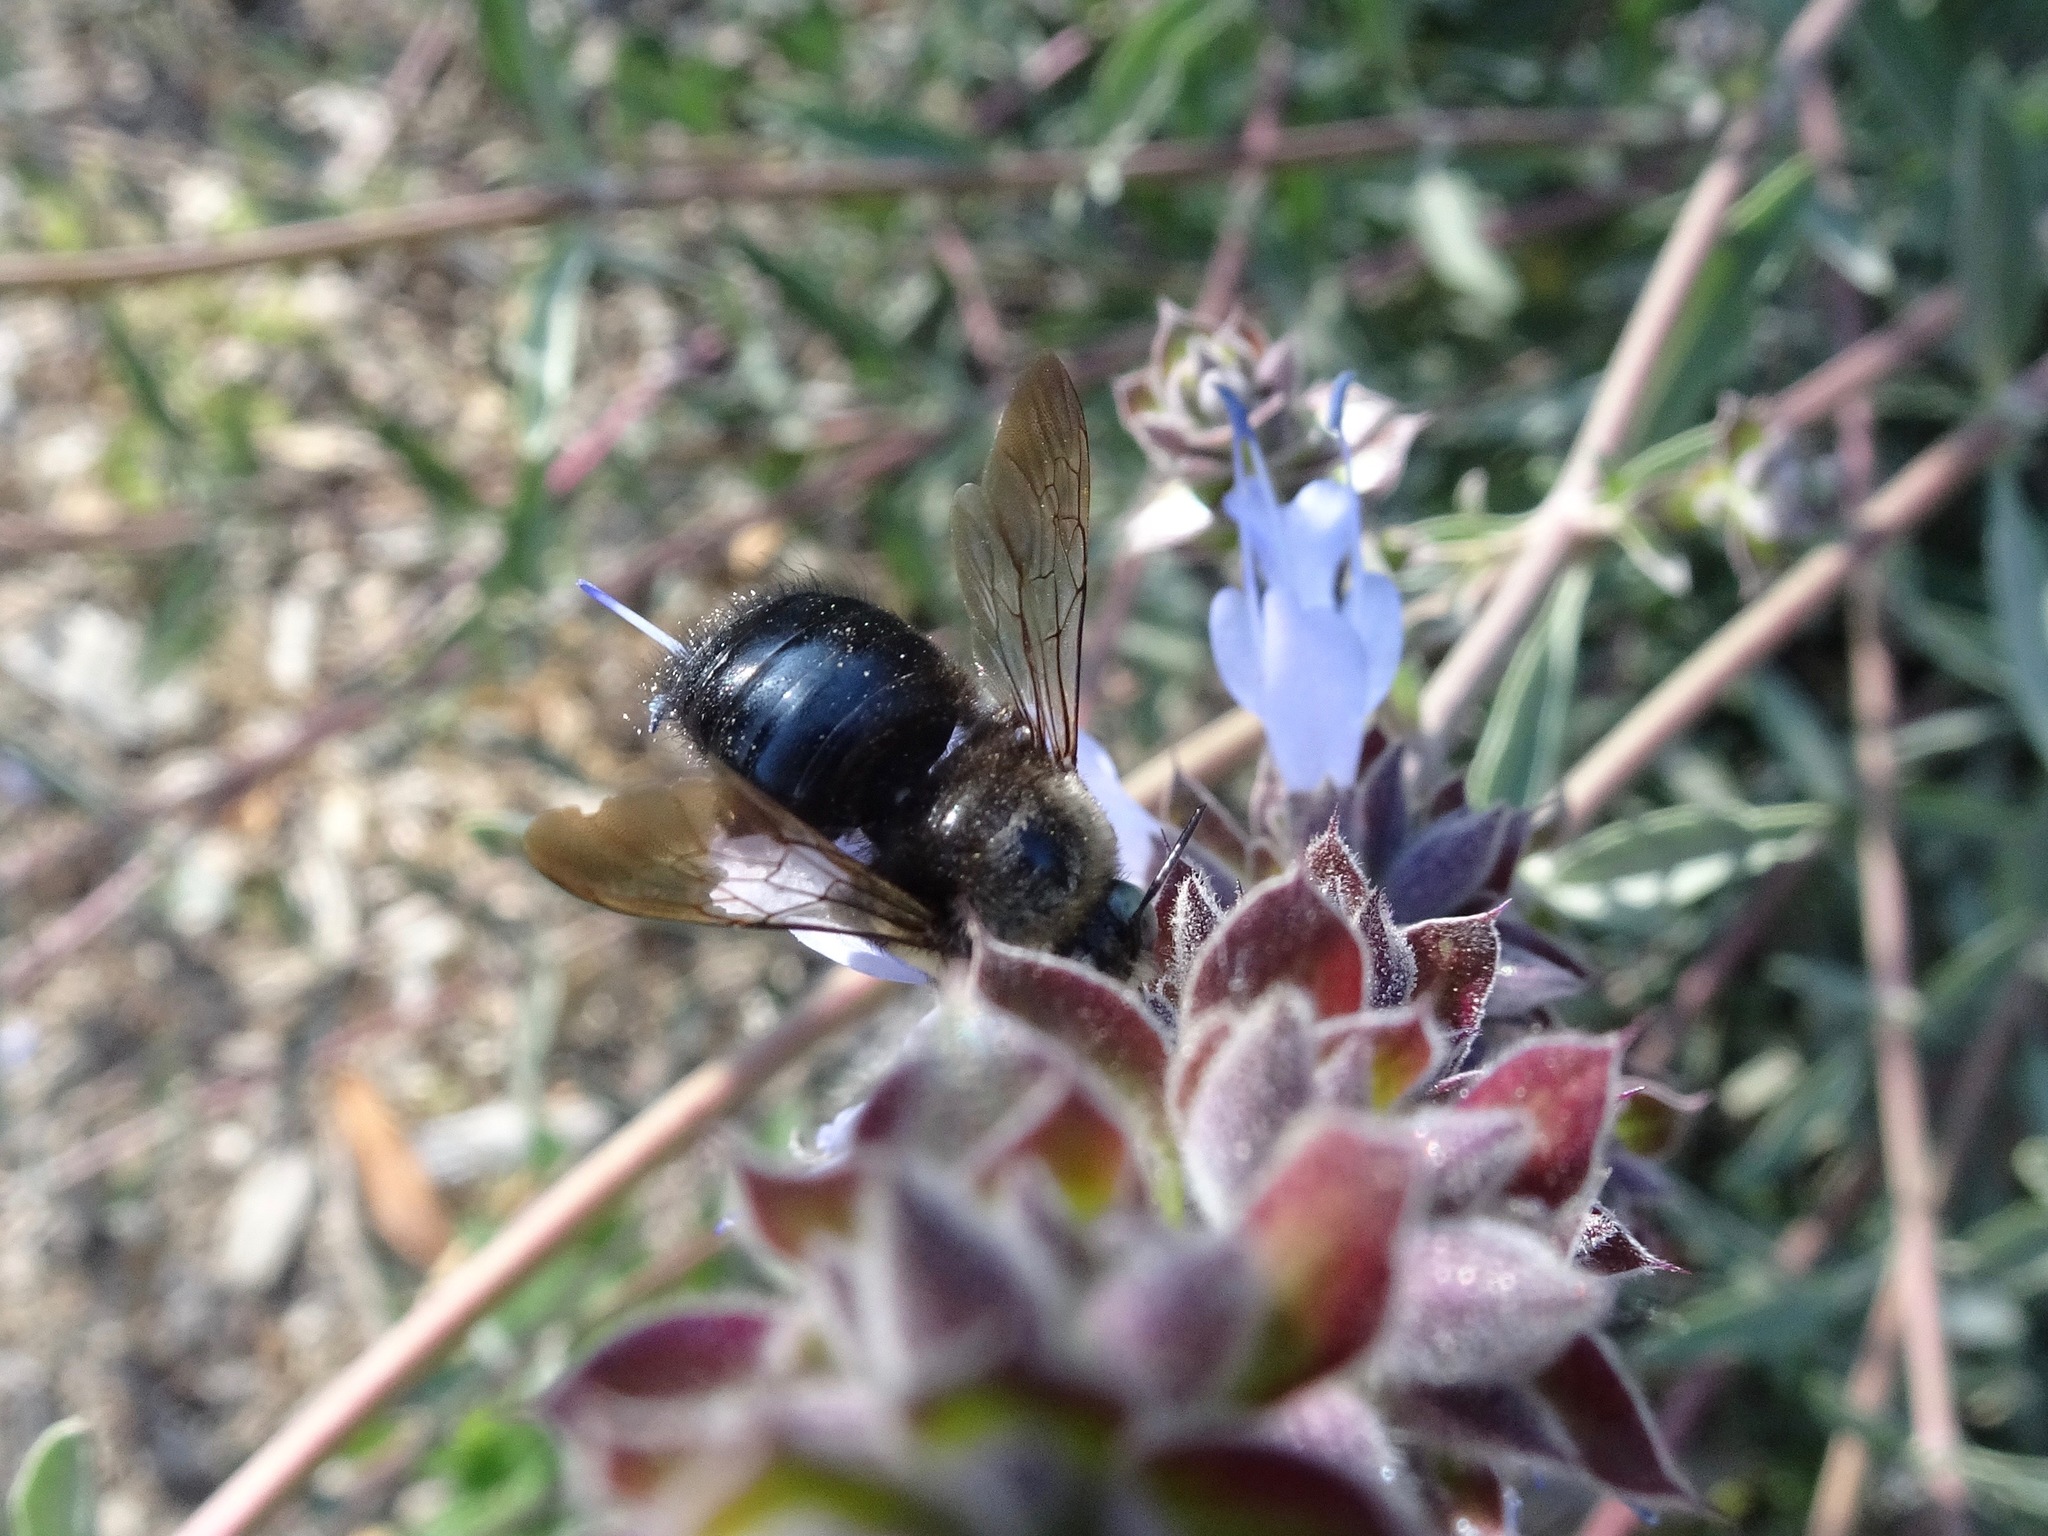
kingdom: Animalia
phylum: Arthropoda
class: Insecta
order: Hymenoptera
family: Apidae
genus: Xylocopa
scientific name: Xylocopa tabaniformis
